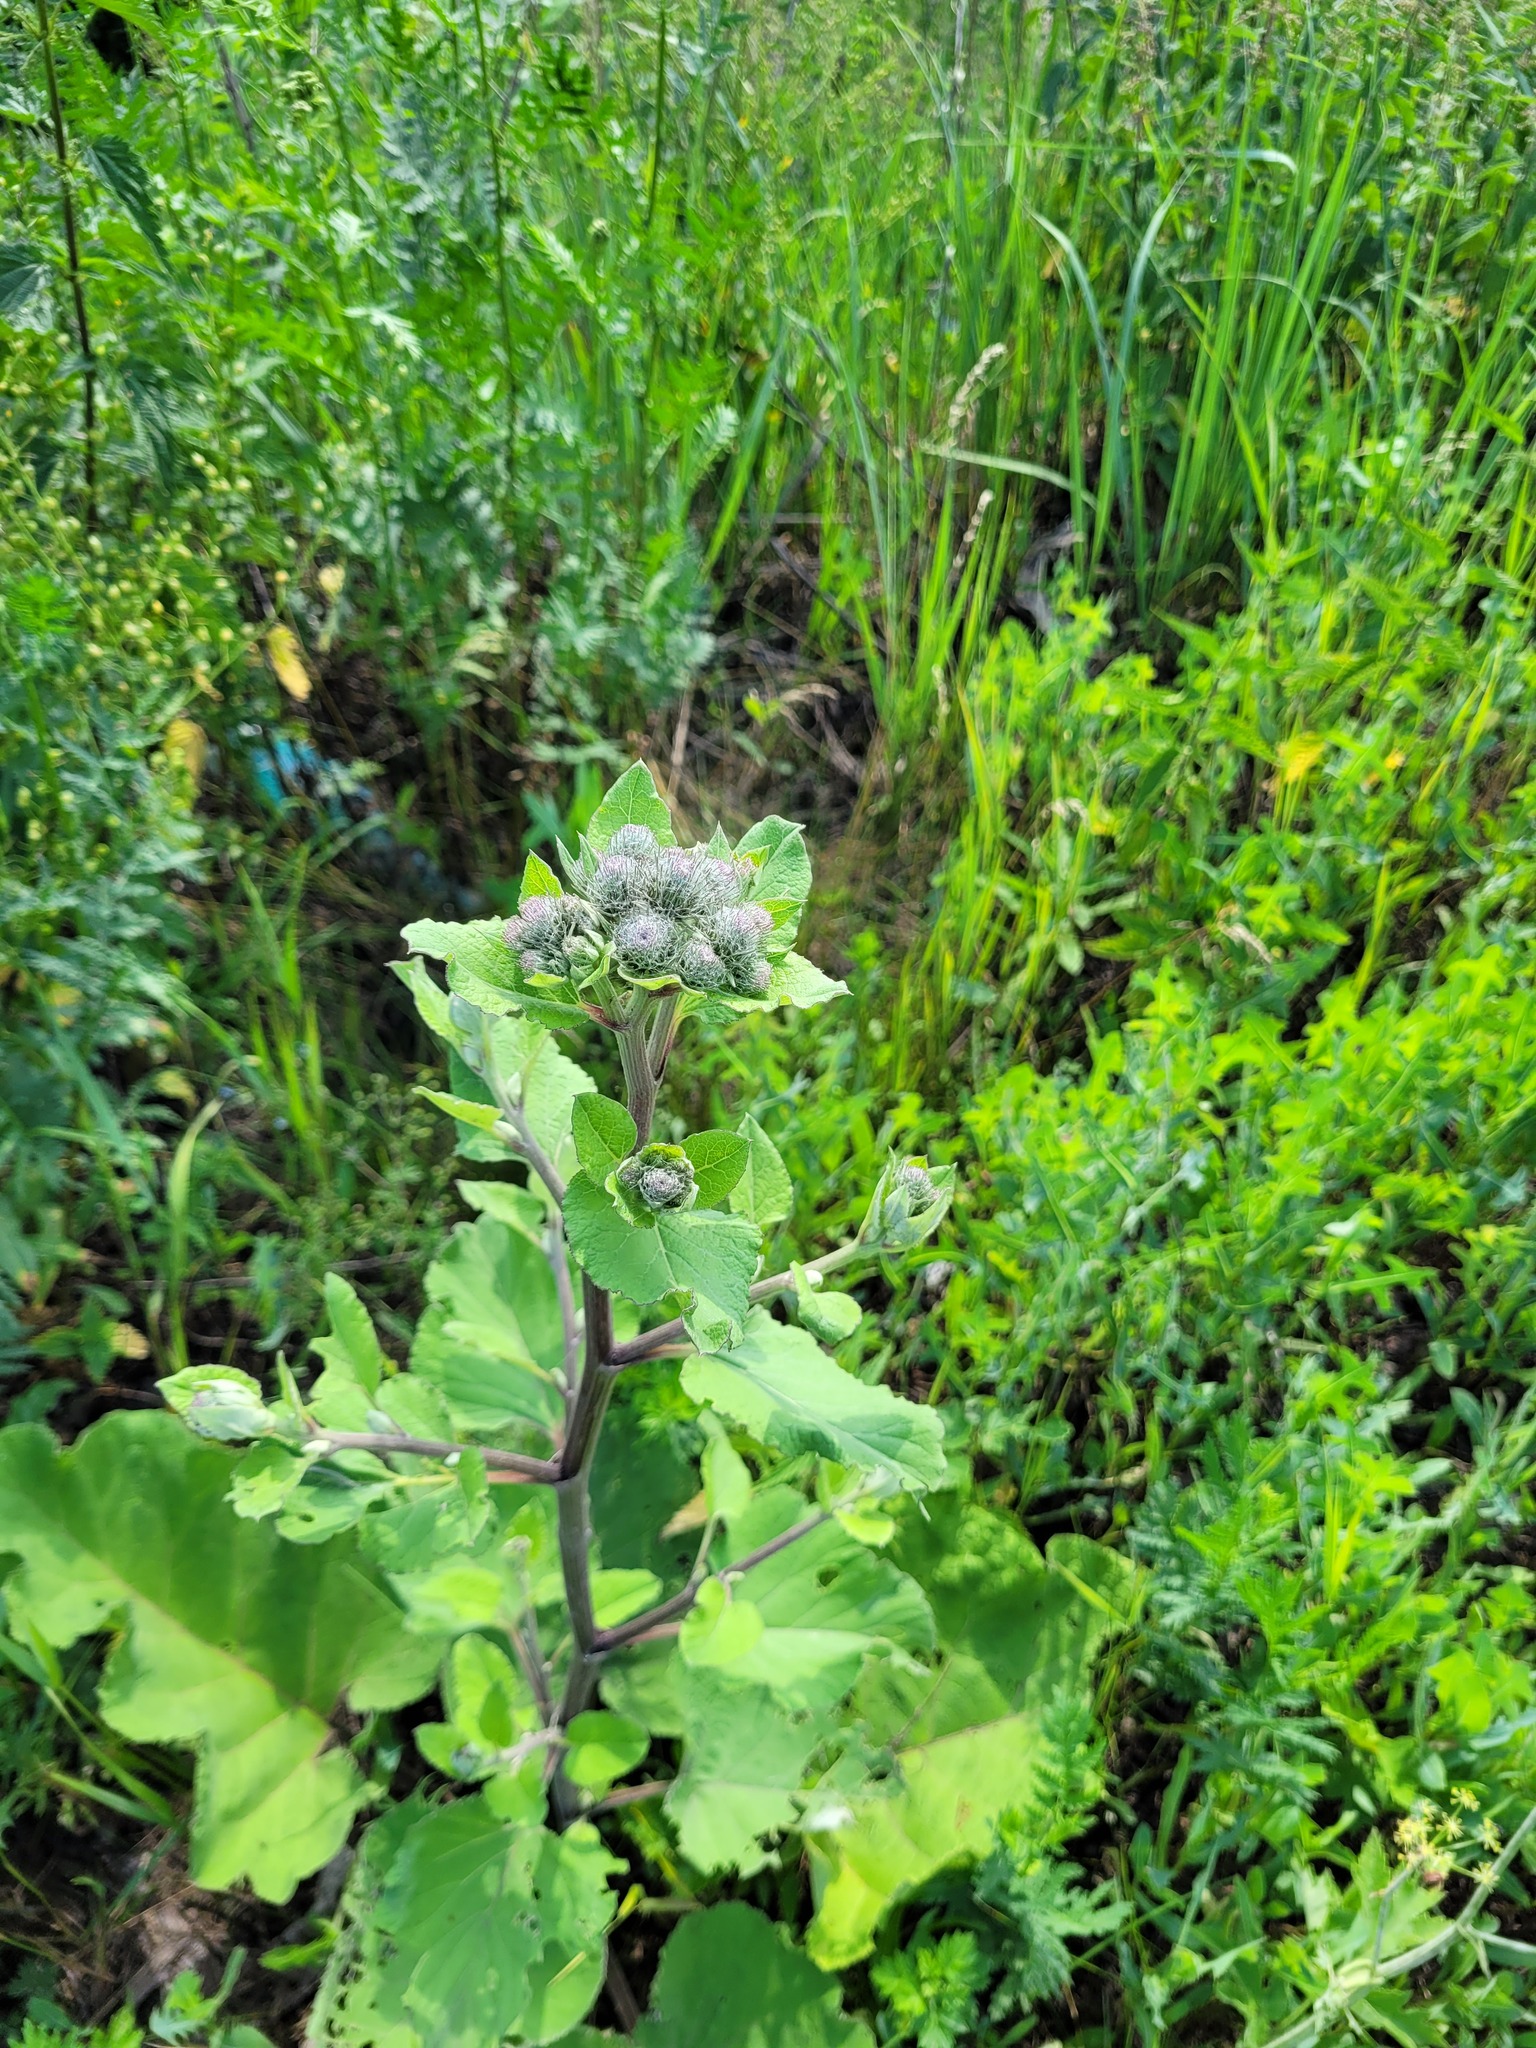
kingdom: Plantae
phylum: Tracheophyta
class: Magnoliopsida
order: Asterales
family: Asteraceae
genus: Arctium
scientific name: Arctium tomentosum
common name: Woolly burdock
